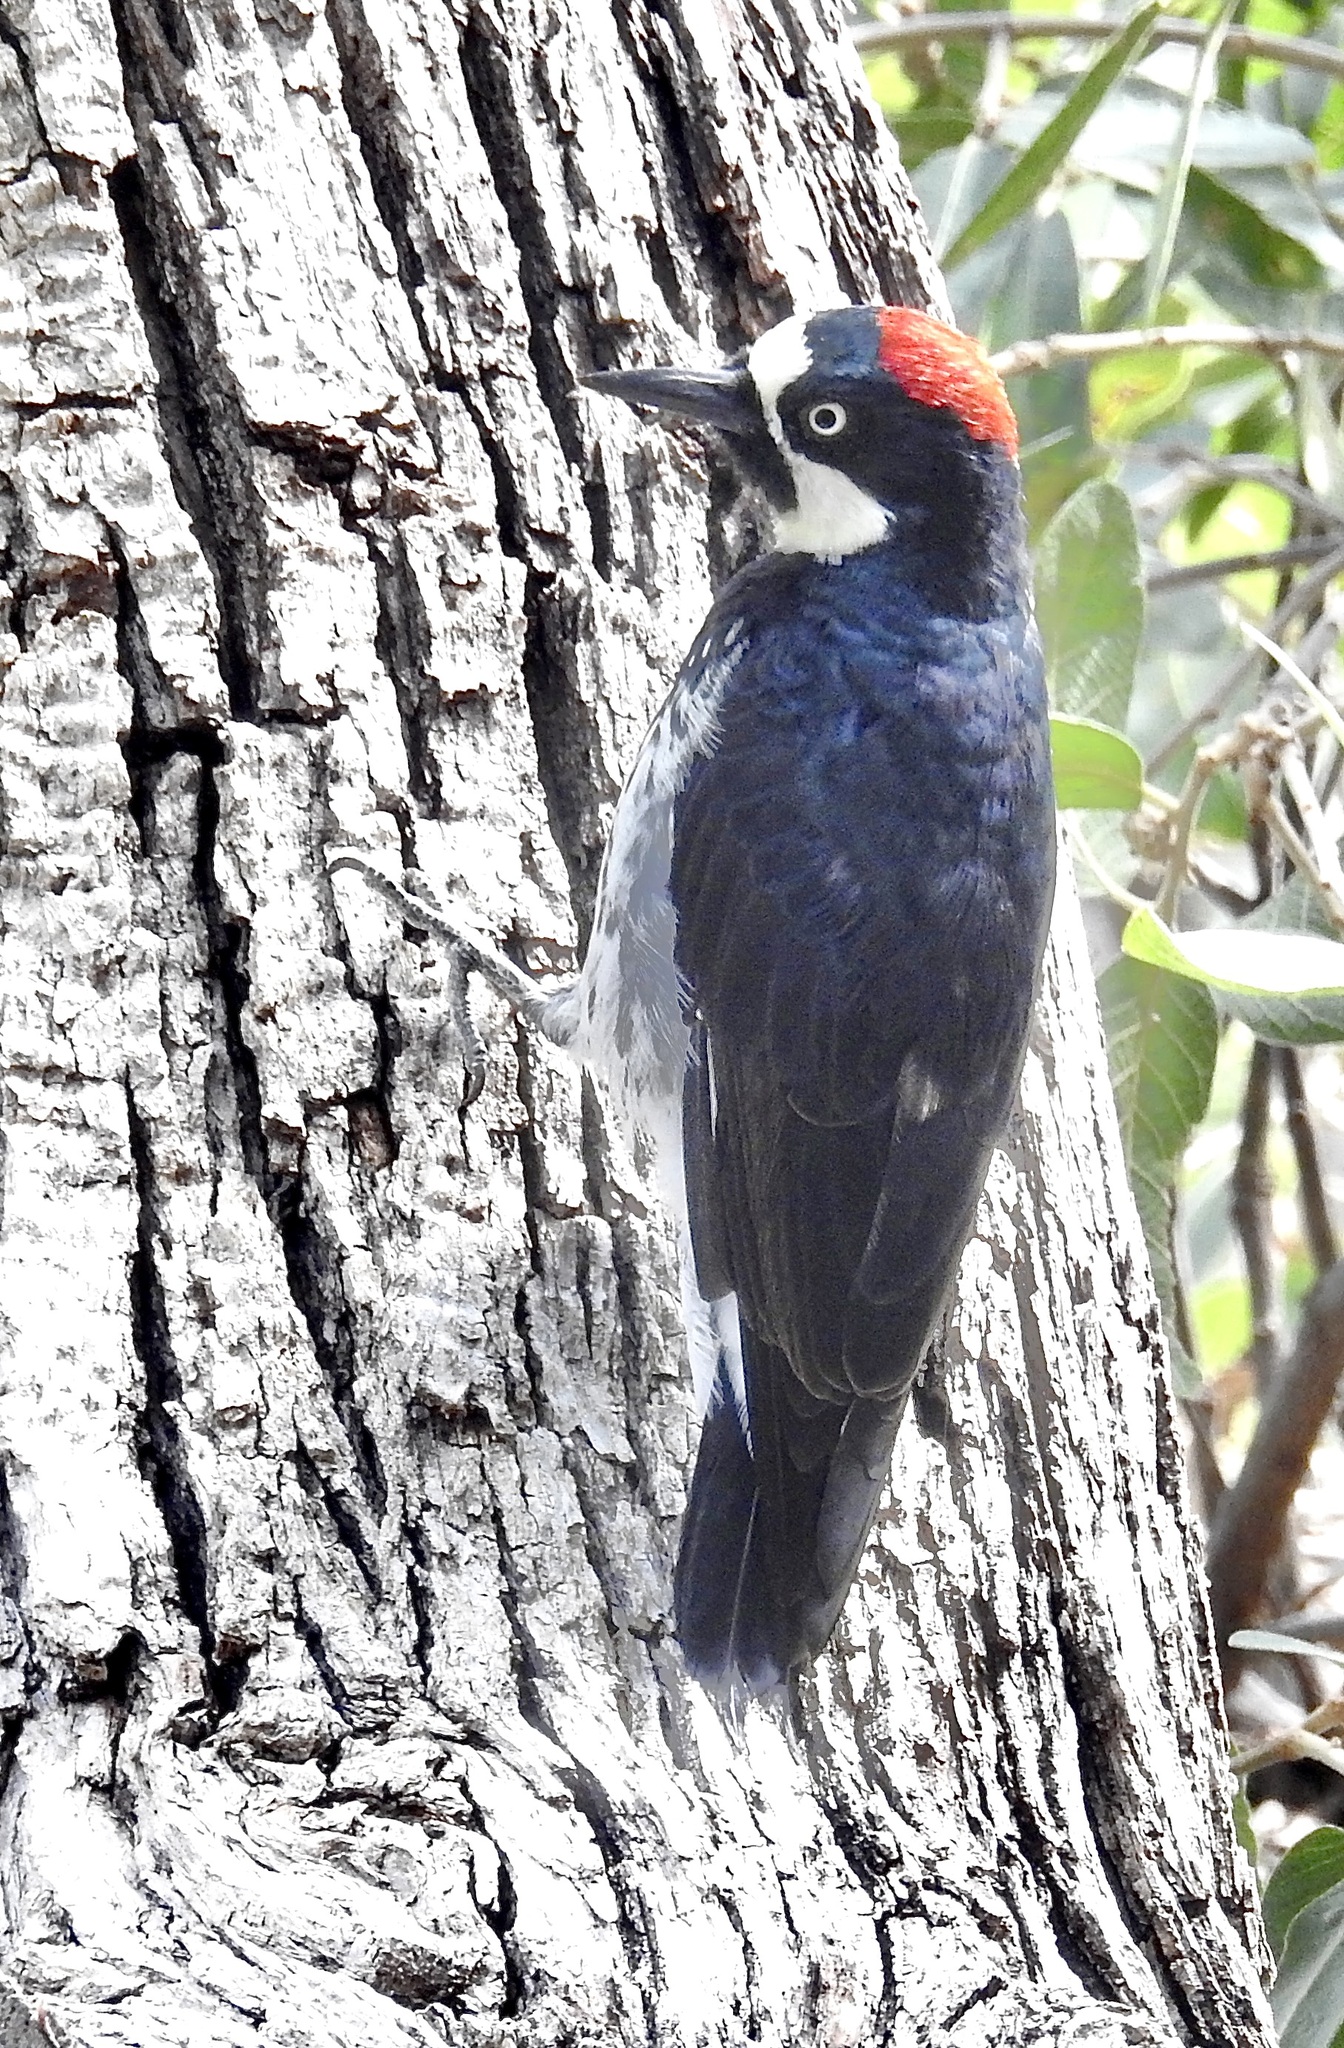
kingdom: Animalia
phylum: Chordata
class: Aves
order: Piciformes
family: Picidae
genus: Melanerpes
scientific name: Melanerpes formicivorus
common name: Acorn woodpecker
